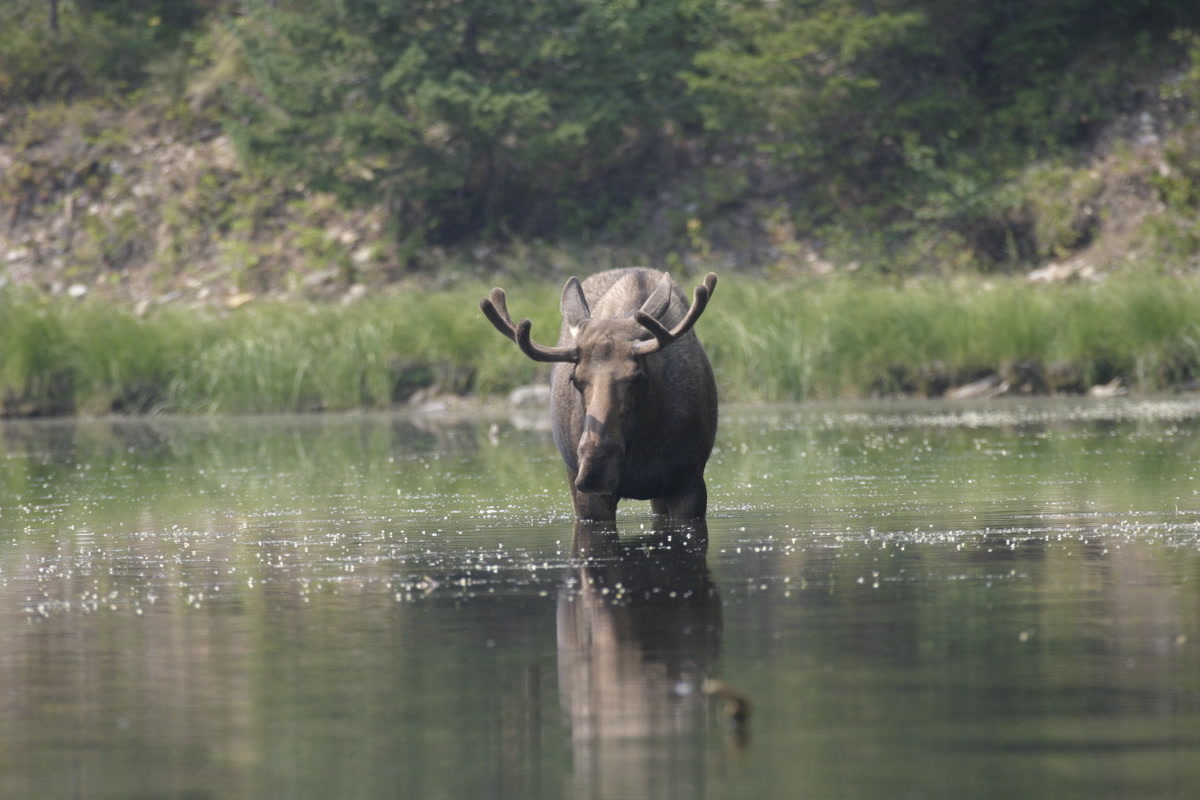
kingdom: Animalia
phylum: Chordata
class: Mammalia
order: Artiodactyla
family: Cervidae
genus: Alces
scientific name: Alces alces
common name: Moose
